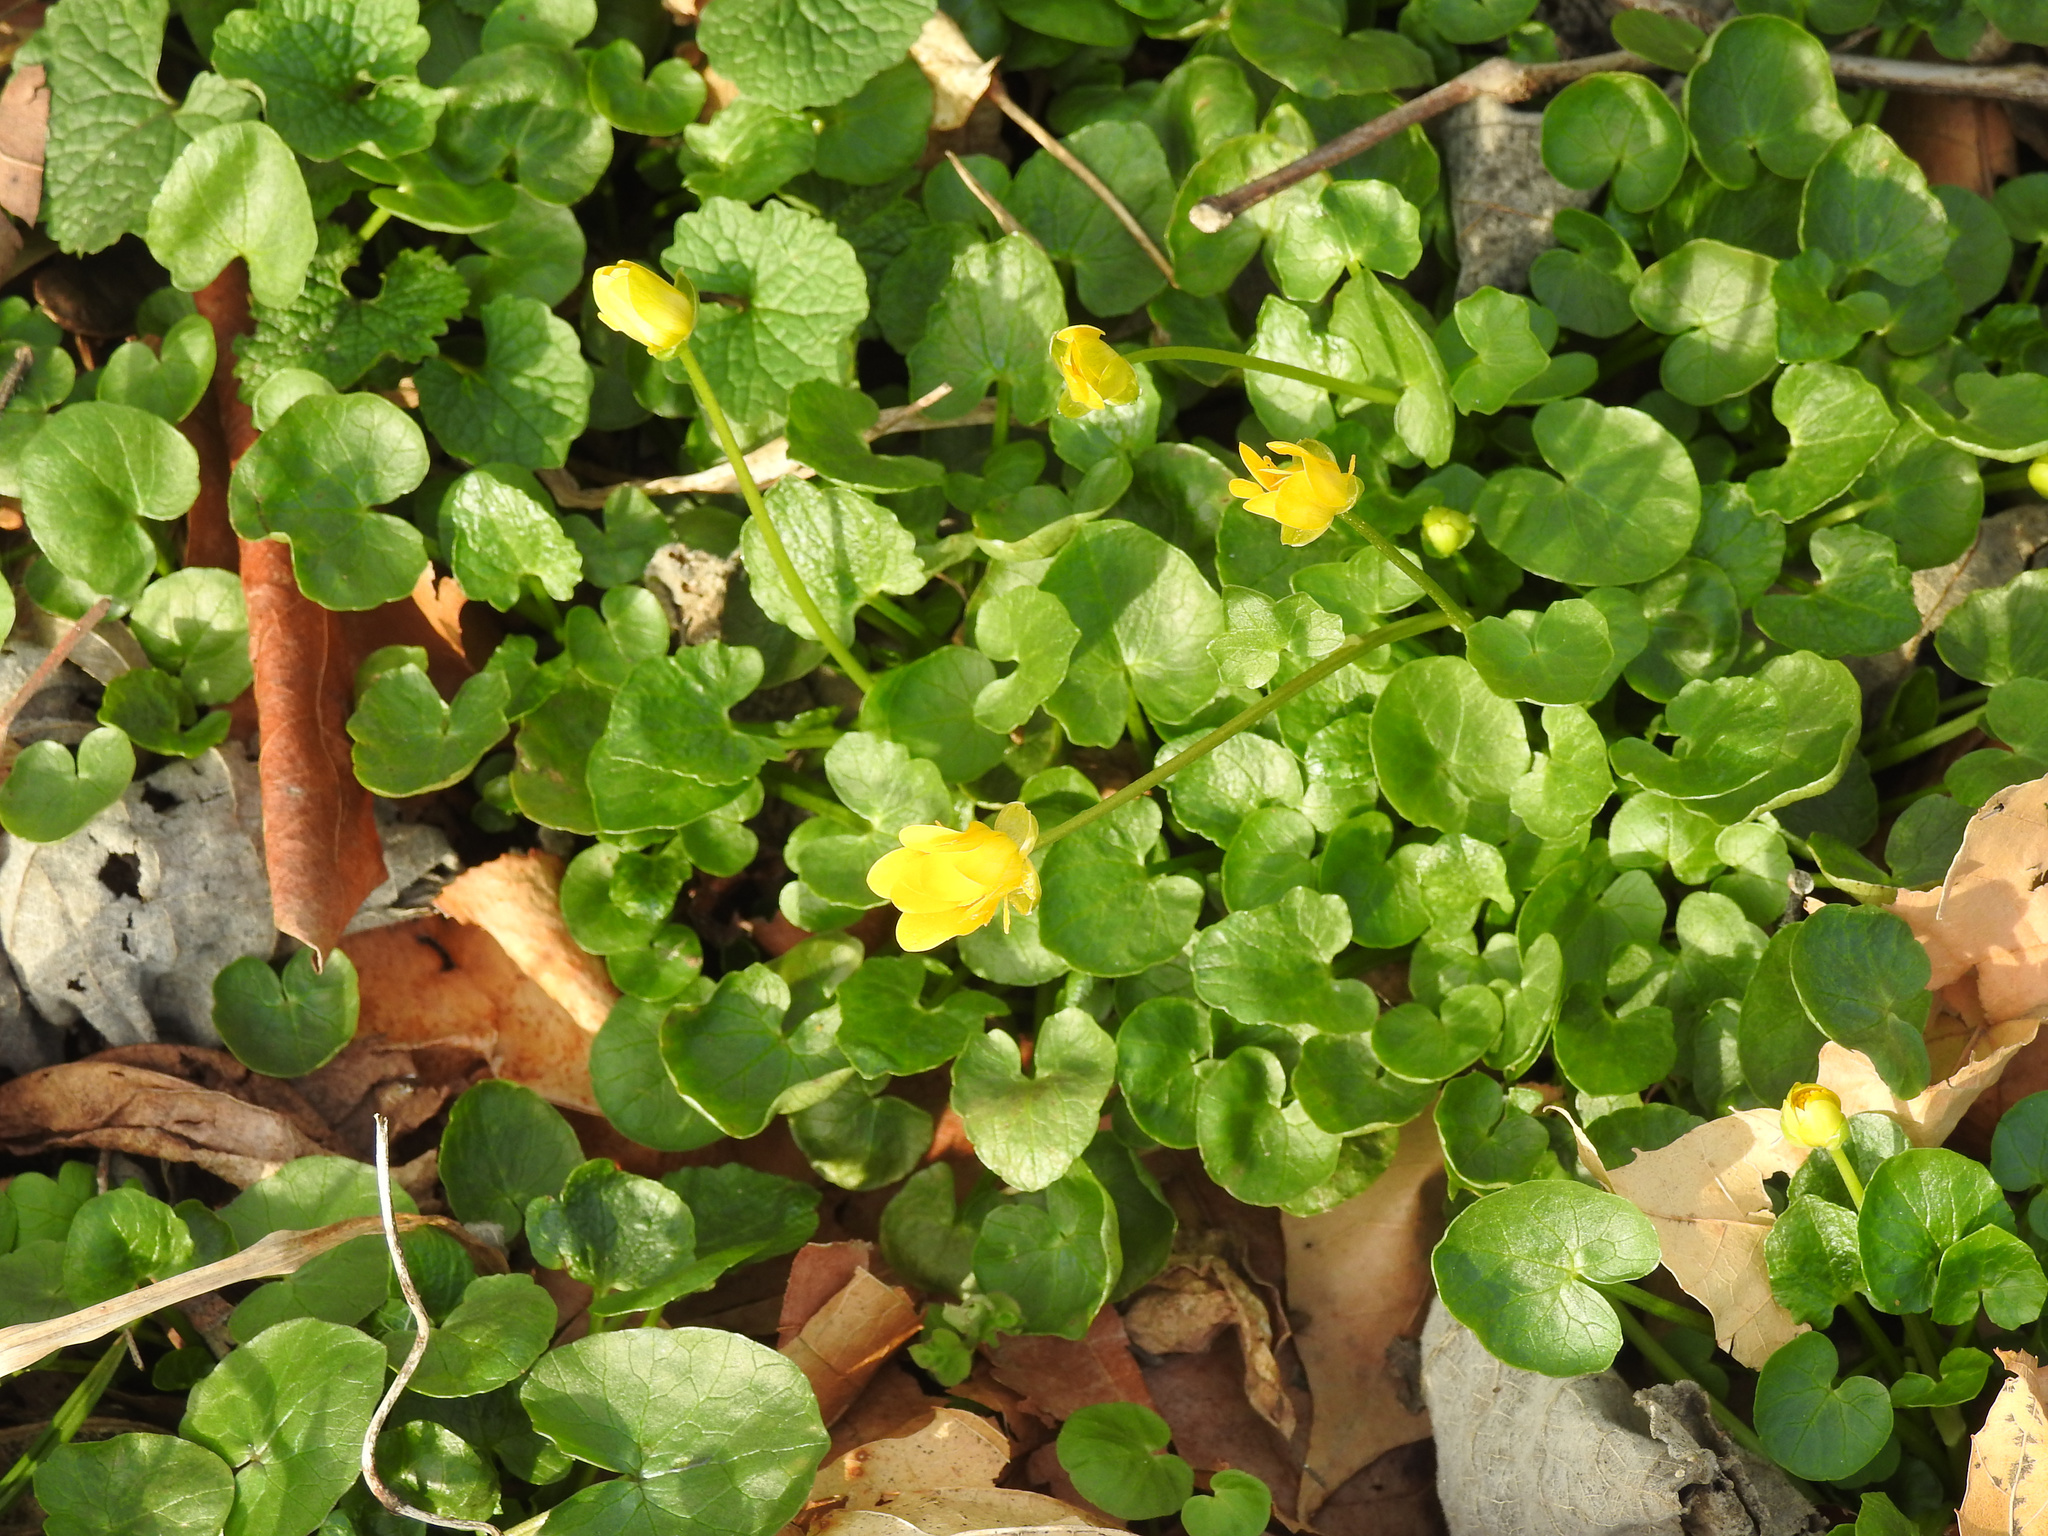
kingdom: Plantae
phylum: Tracheophyta
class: Magnoliopsida
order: Ranunculales
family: Ranunculaceae
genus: Ficaria
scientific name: Ficaria verna
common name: Lesser celandine
